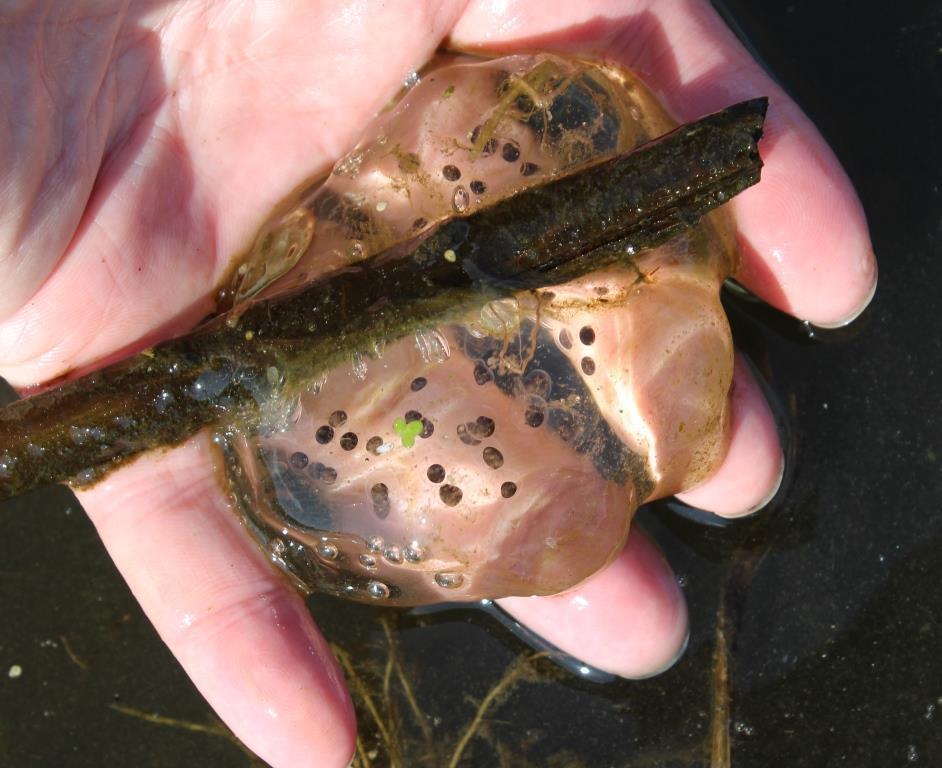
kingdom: Animalia
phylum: Chordata
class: Amphibia
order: Caudata
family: Ambystomatidae
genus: Ambystoma
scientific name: Ambystoma gracile
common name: Northwestern salamander
